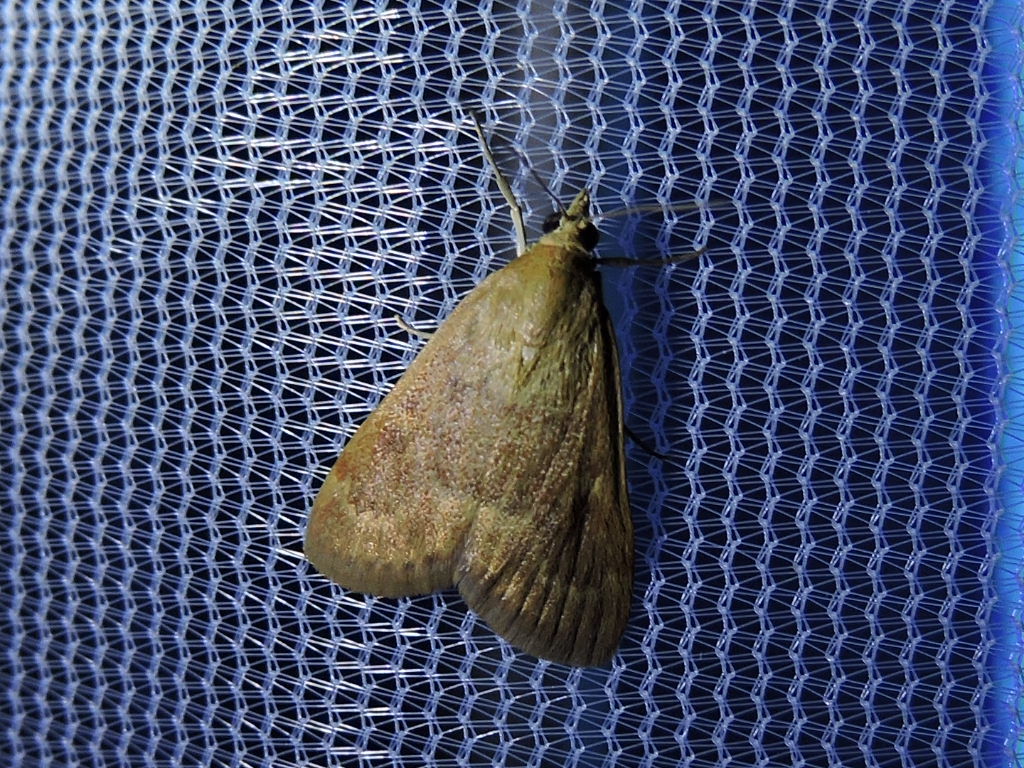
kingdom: Animalia
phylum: Arthropoda
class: Insecta
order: Lepidoptera
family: Crambidae
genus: Achyra
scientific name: Achyra rantalis
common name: Garden webworm
